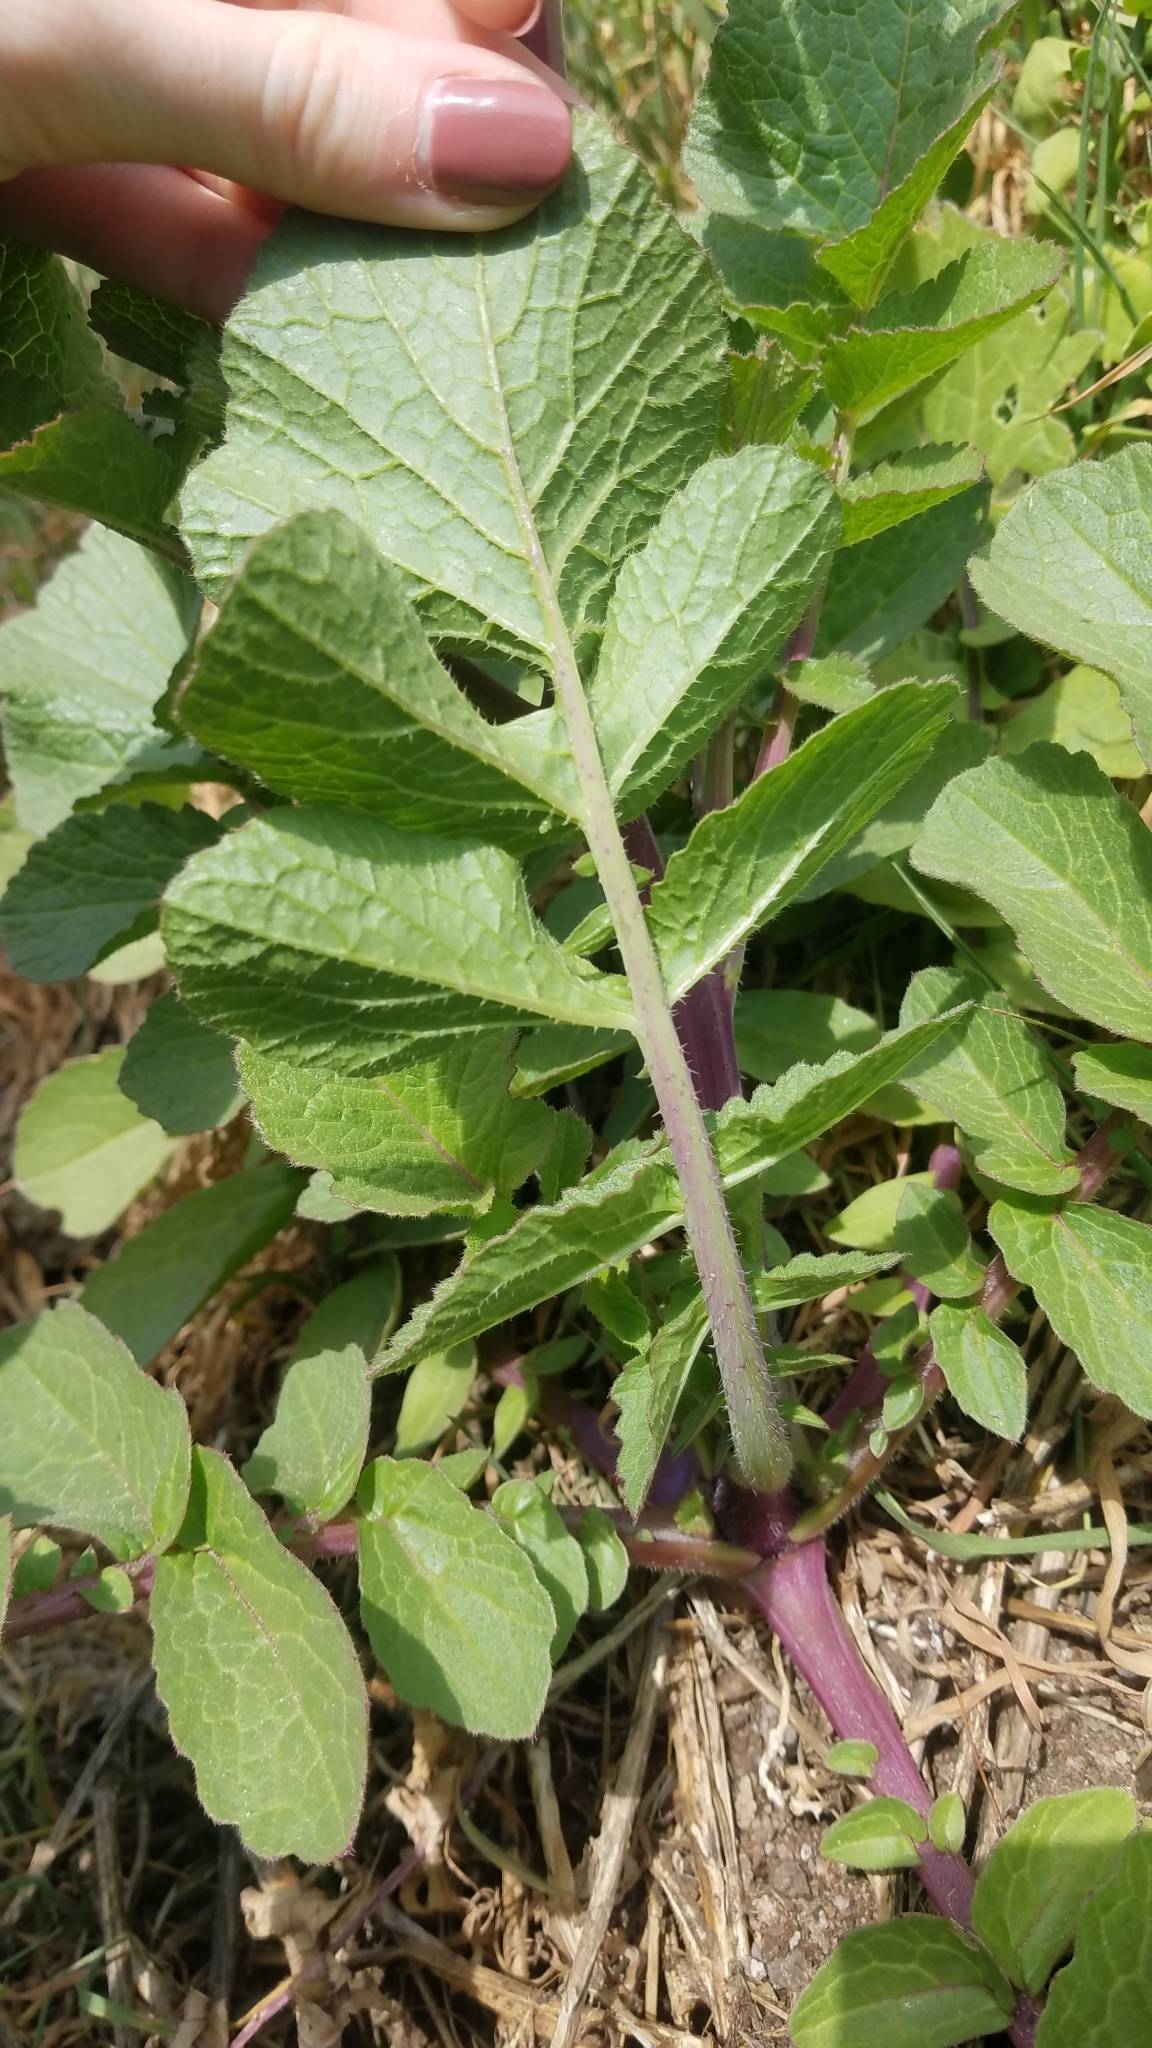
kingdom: Plantae
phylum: Tracheophyta
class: Magnoliopsida
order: Brassicales
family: Brassicaceae
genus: Raphanus
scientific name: Raphanus sativus
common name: Cultivated radish
